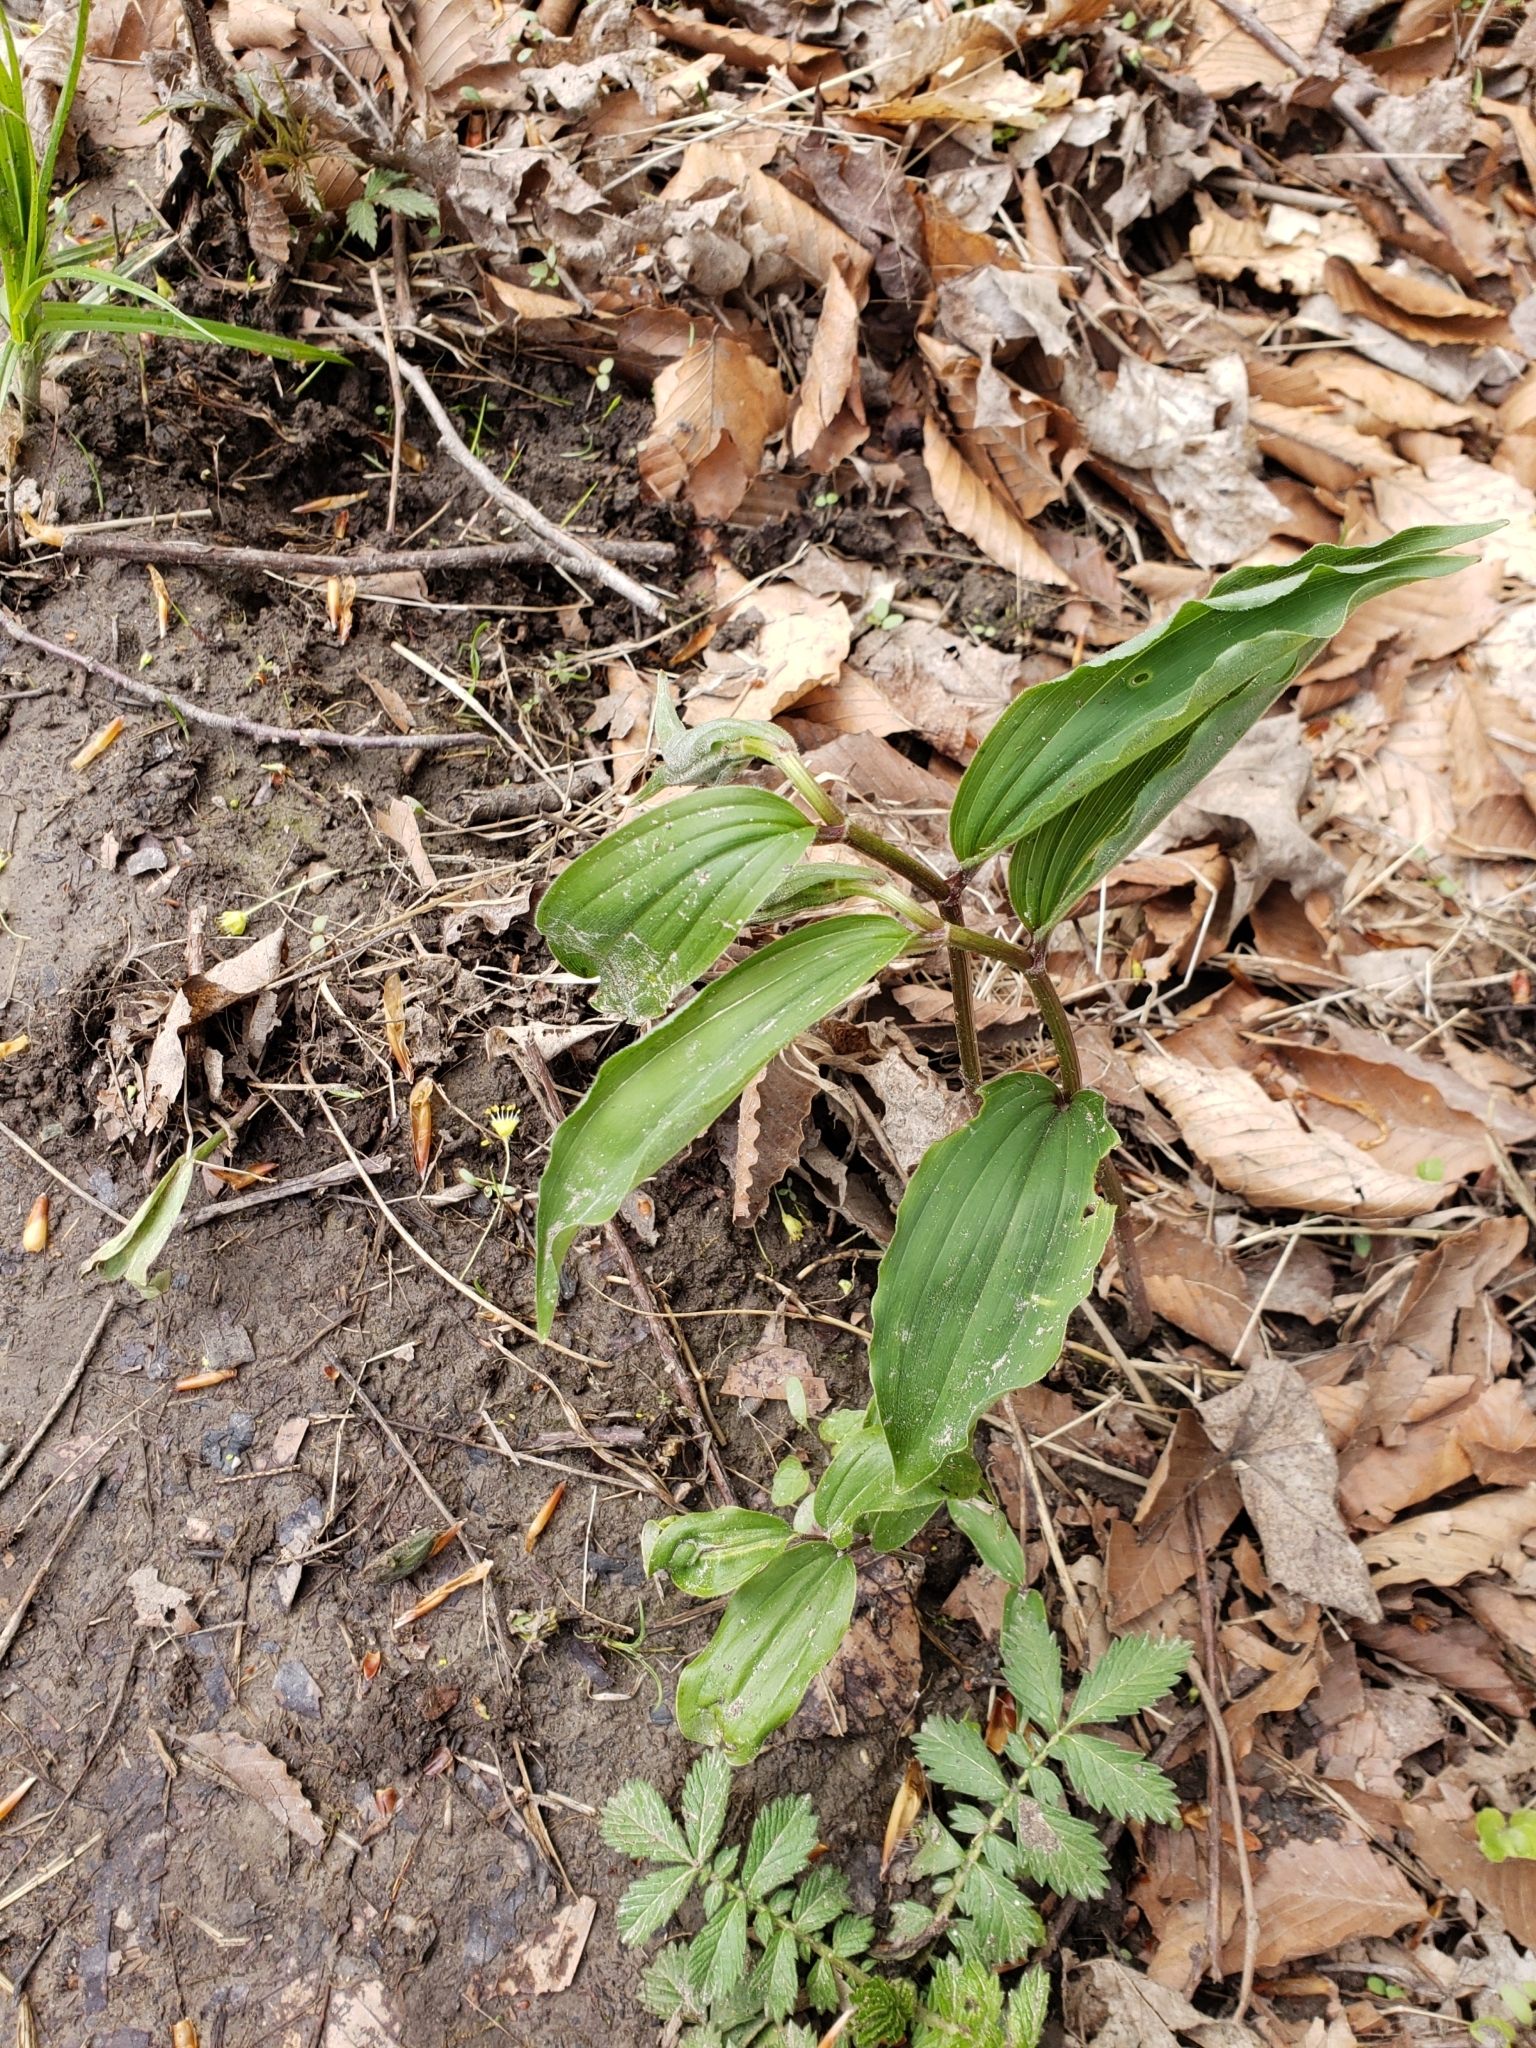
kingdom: Plantae
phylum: Tracheophyta
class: Liliopsida
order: Asparagales
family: Asparagaceae
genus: Maianthemum
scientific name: Maianthemum racemosum
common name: False spikenard
